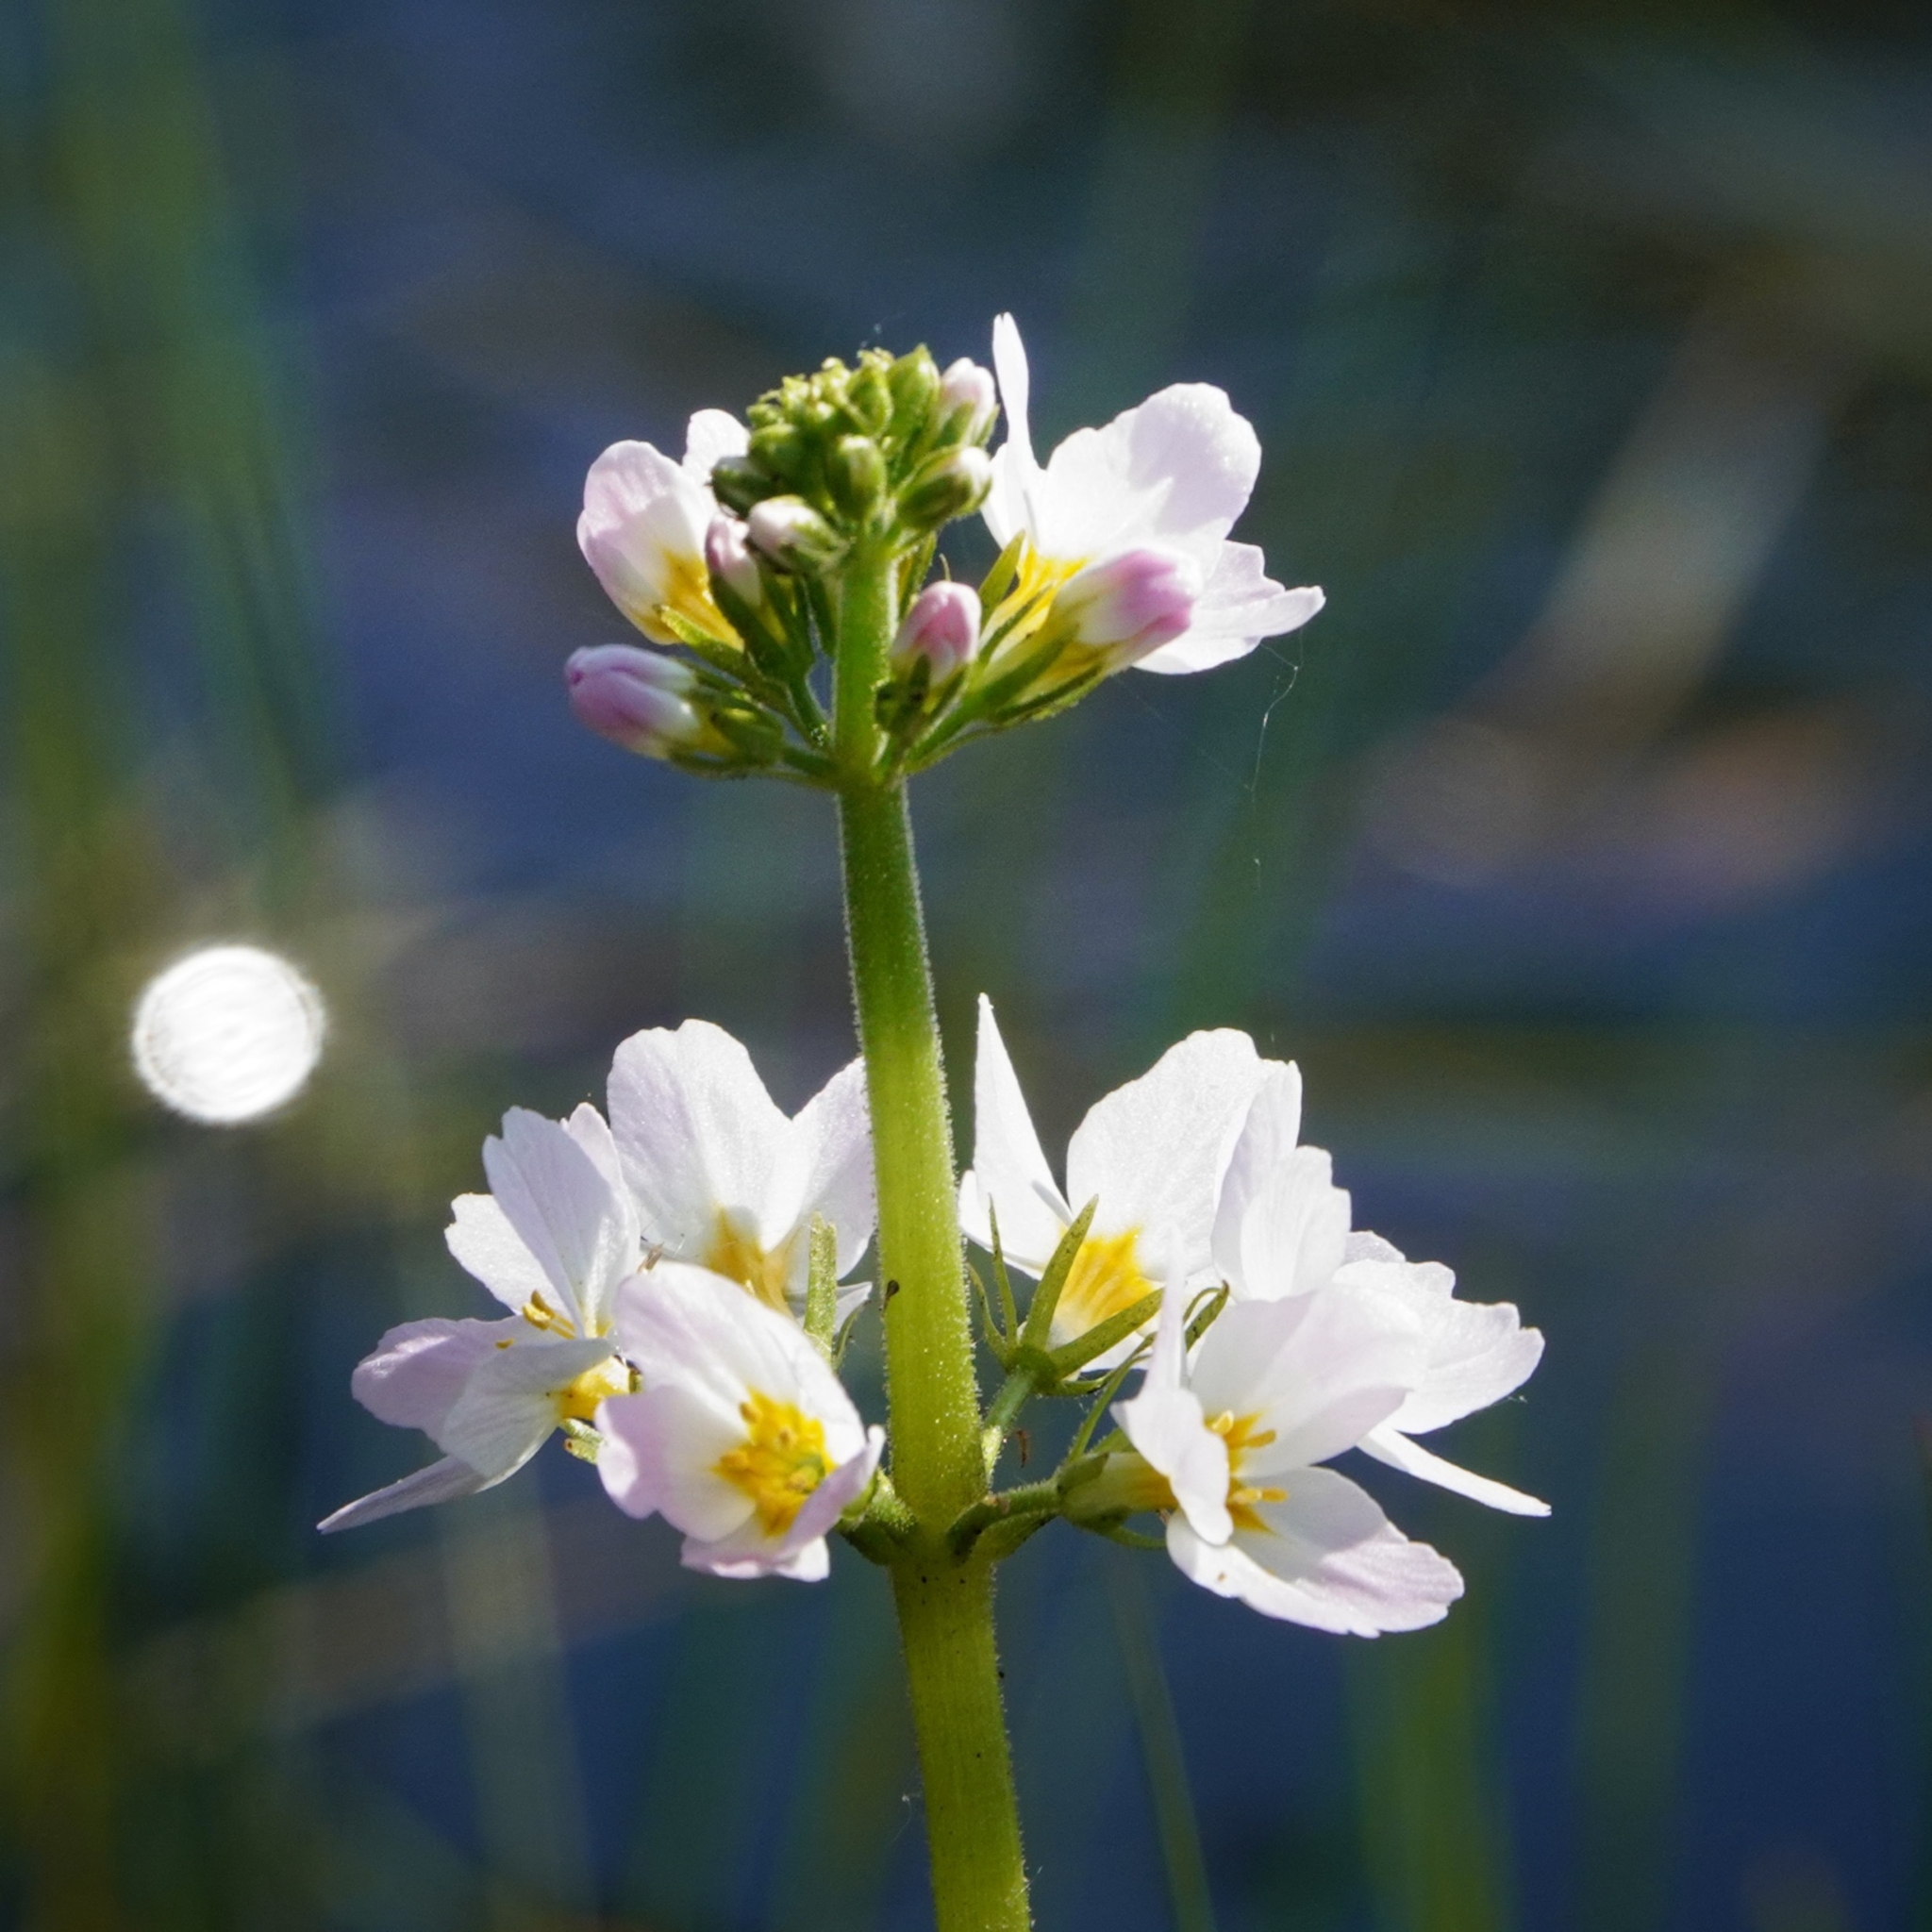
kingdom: Plantae
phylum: Tracheophyta
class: Magnoliopsida
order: Ericales
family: Primulaceae
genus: Hottonia
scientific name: Hottonia palustris
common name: Water-violet
